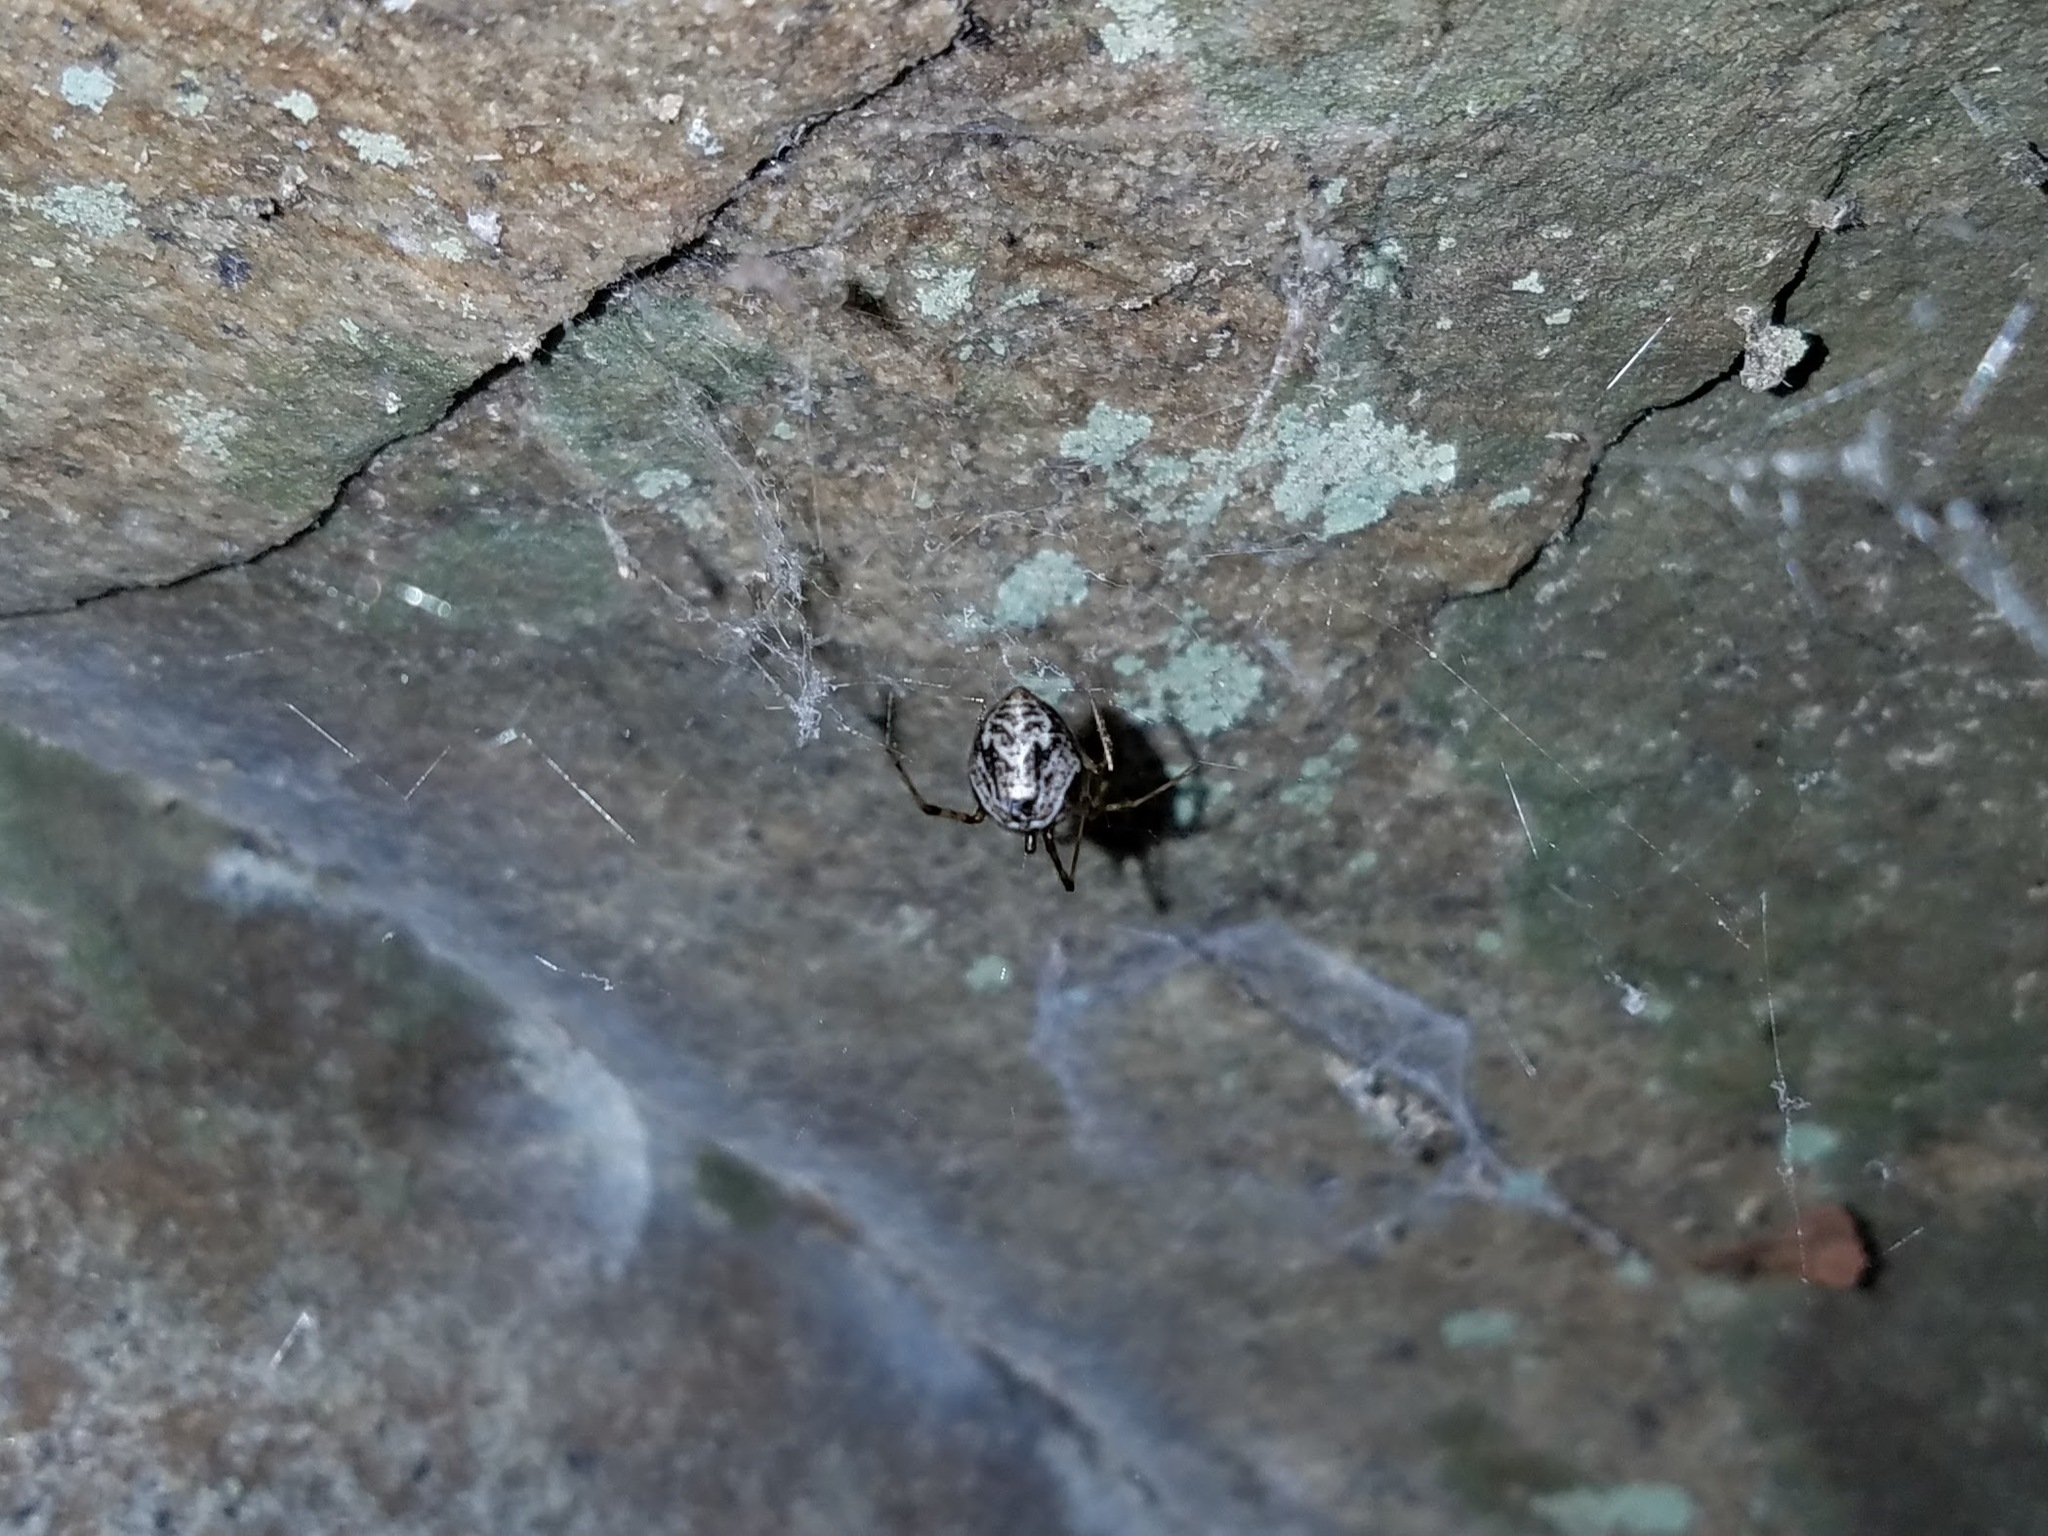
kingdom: Animalia
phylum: Arthropoda
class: Arachnida
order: Araneae
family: Theridiidae
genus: Parasteatoda
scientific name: Parasteatoda tepidariorum
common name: Common house spider
